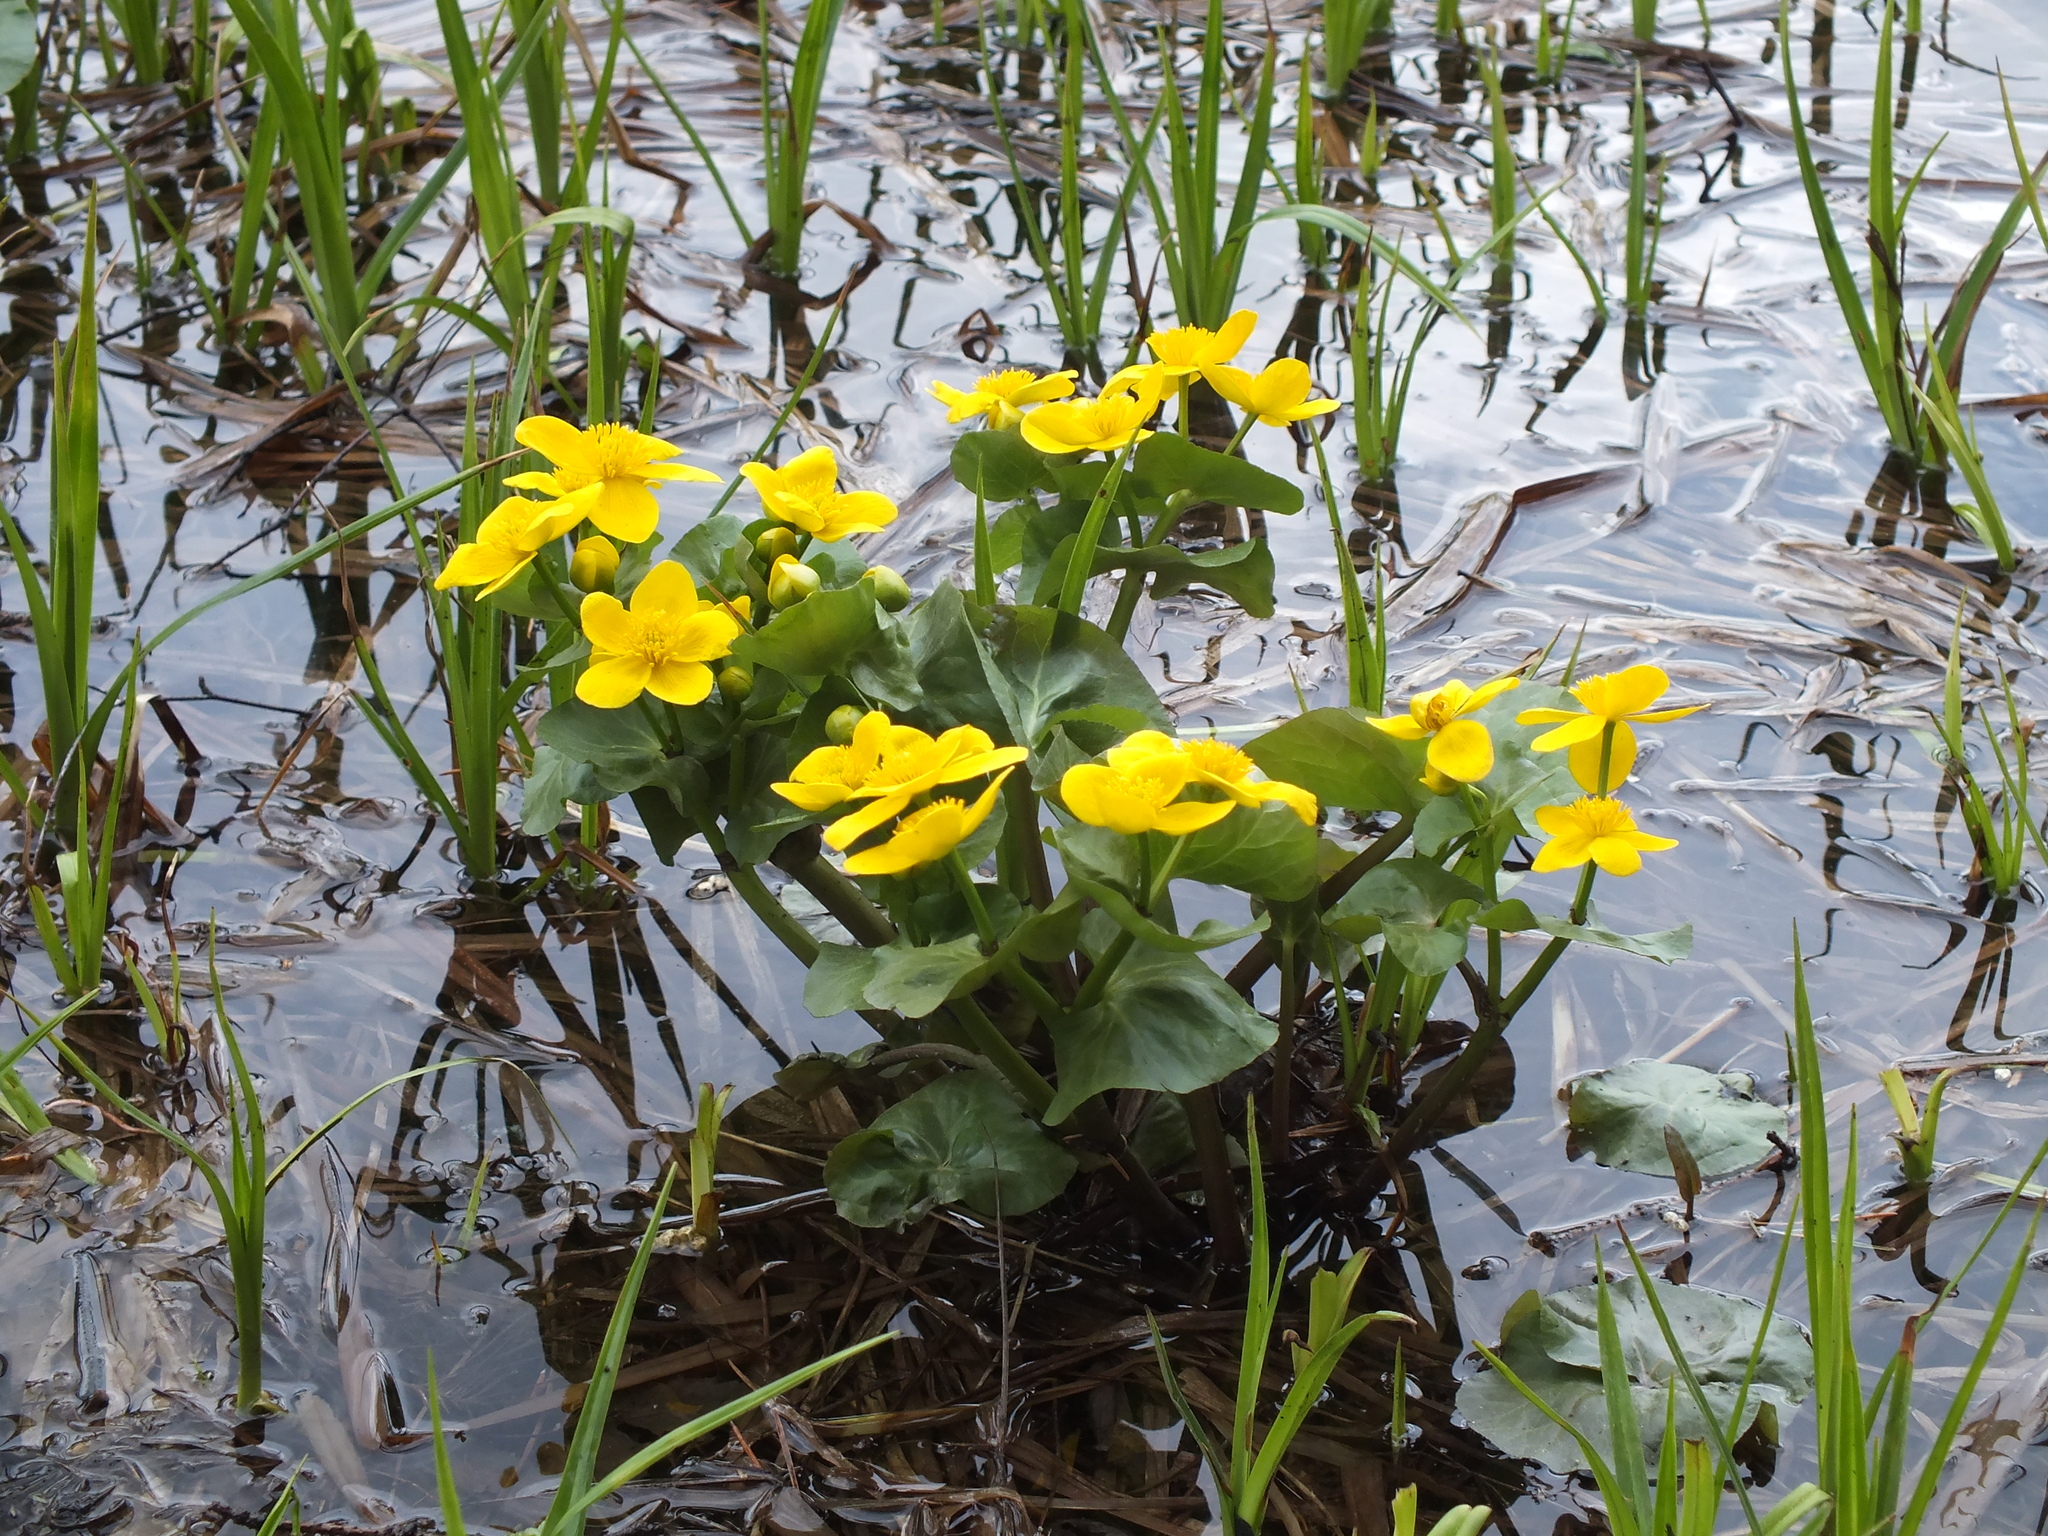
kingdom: Plantae
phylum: Tracheophyta
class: Magnoliopsida
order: Ranunculales
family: Ranunculaceae
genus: Caltha
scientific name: Caltha palustris
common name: Marsh marigold
